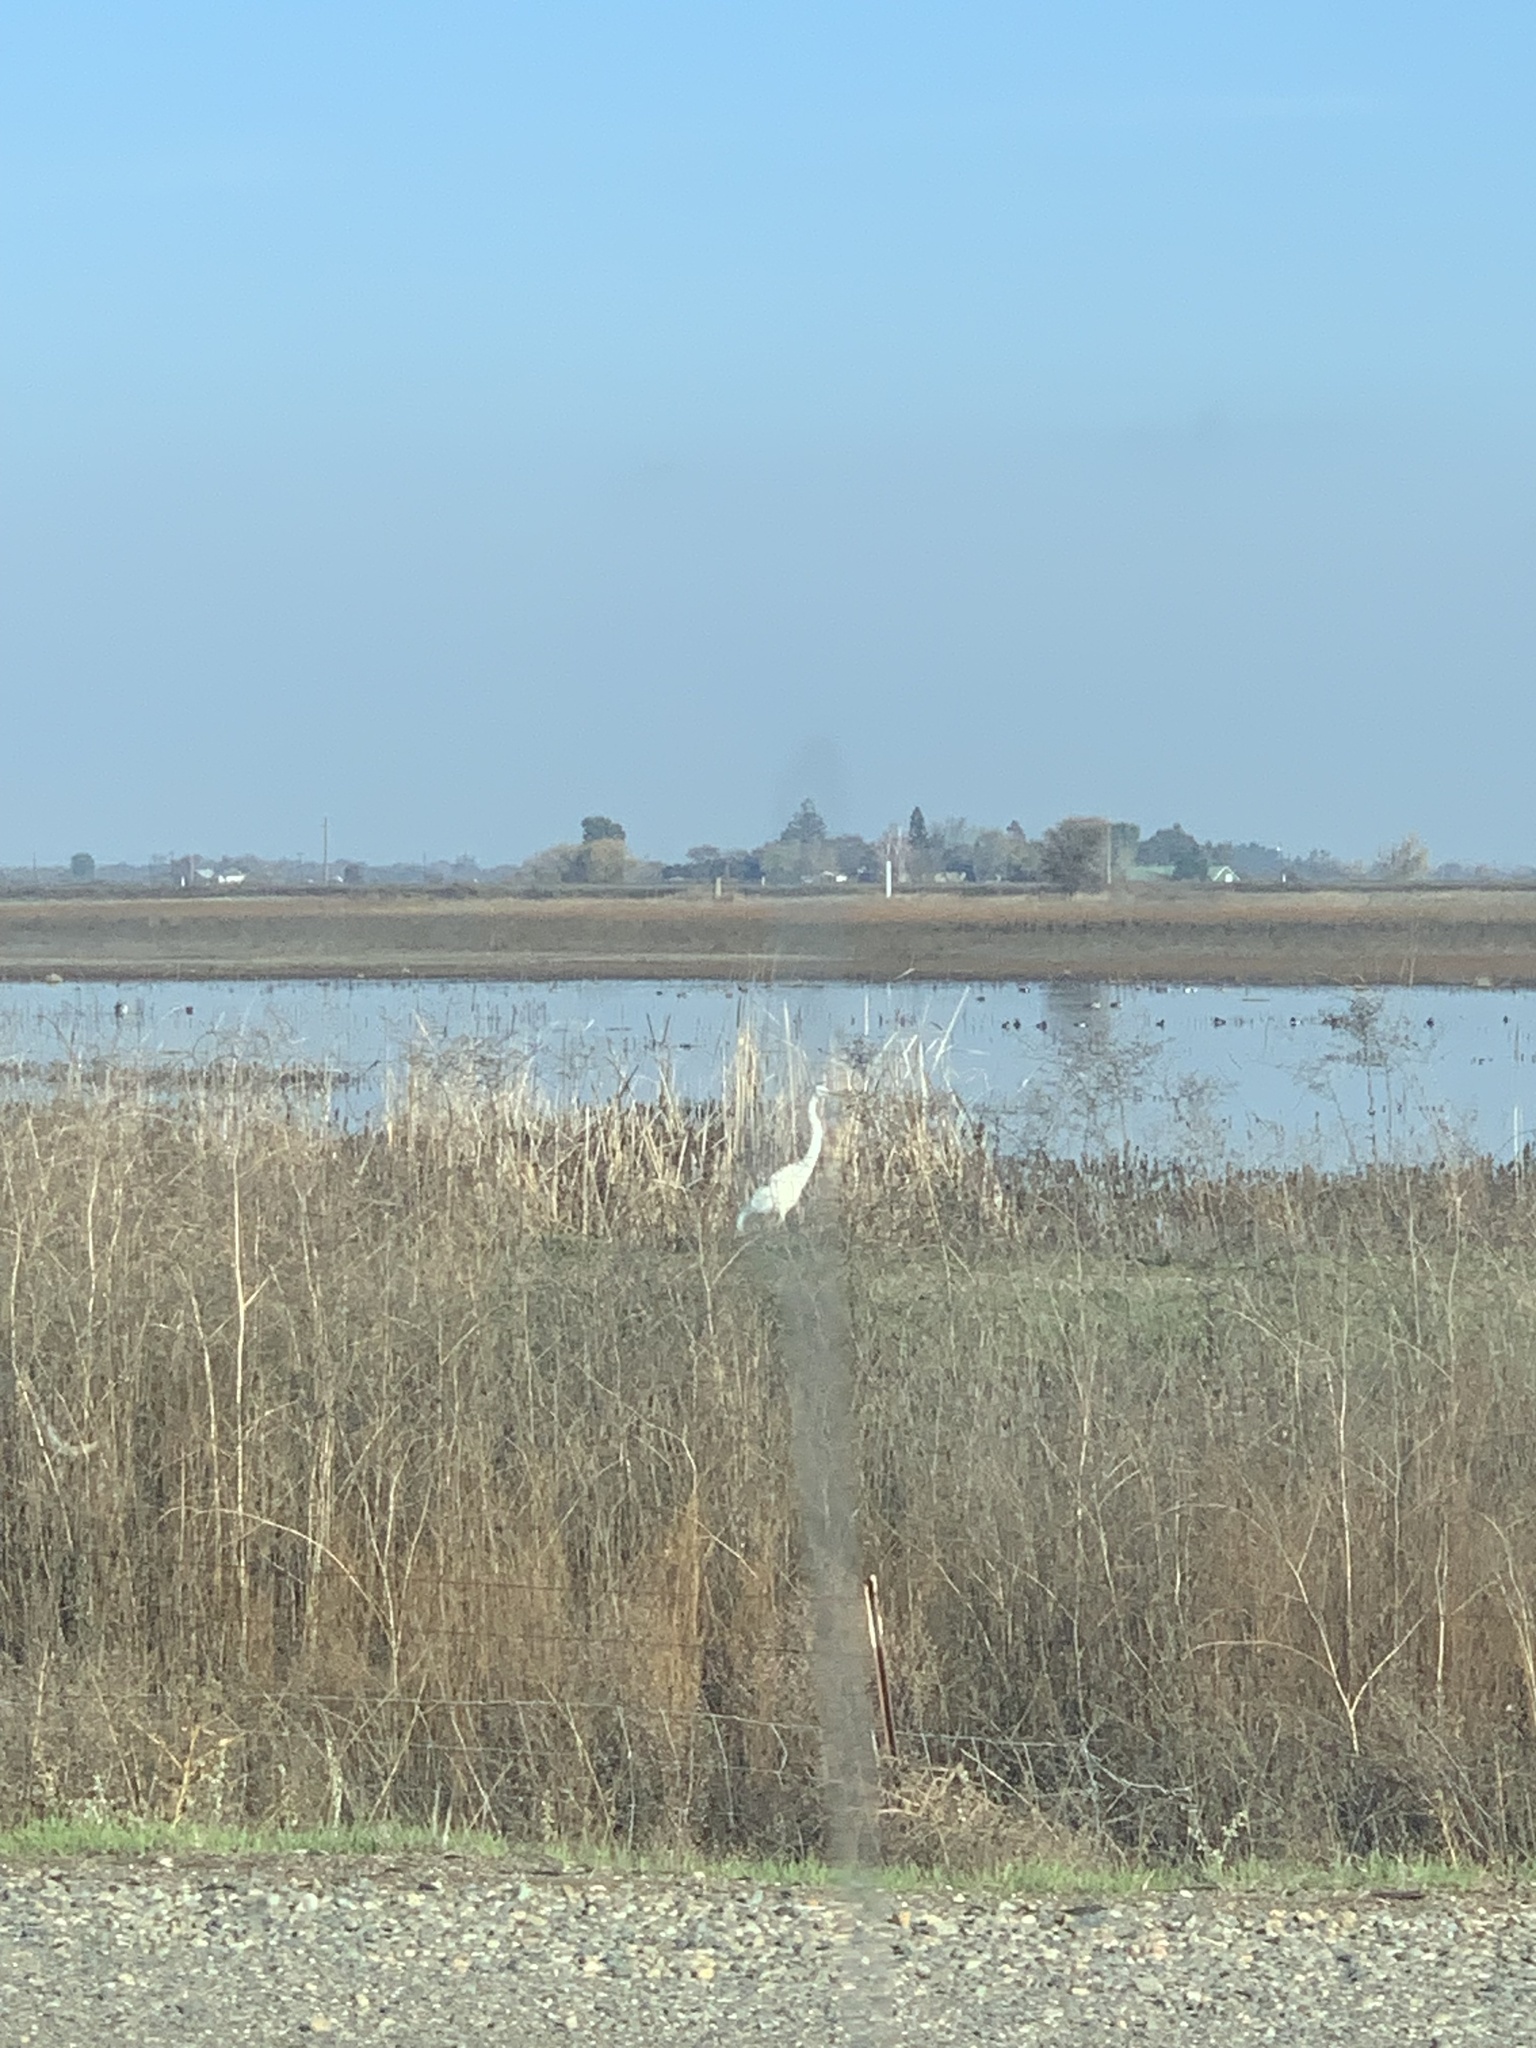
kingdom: Animalia
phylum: Chordata
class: Aves
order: Pelecaniformes
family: Ardeidae
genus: Ardea
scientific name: Ardea alba
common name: Great egret
